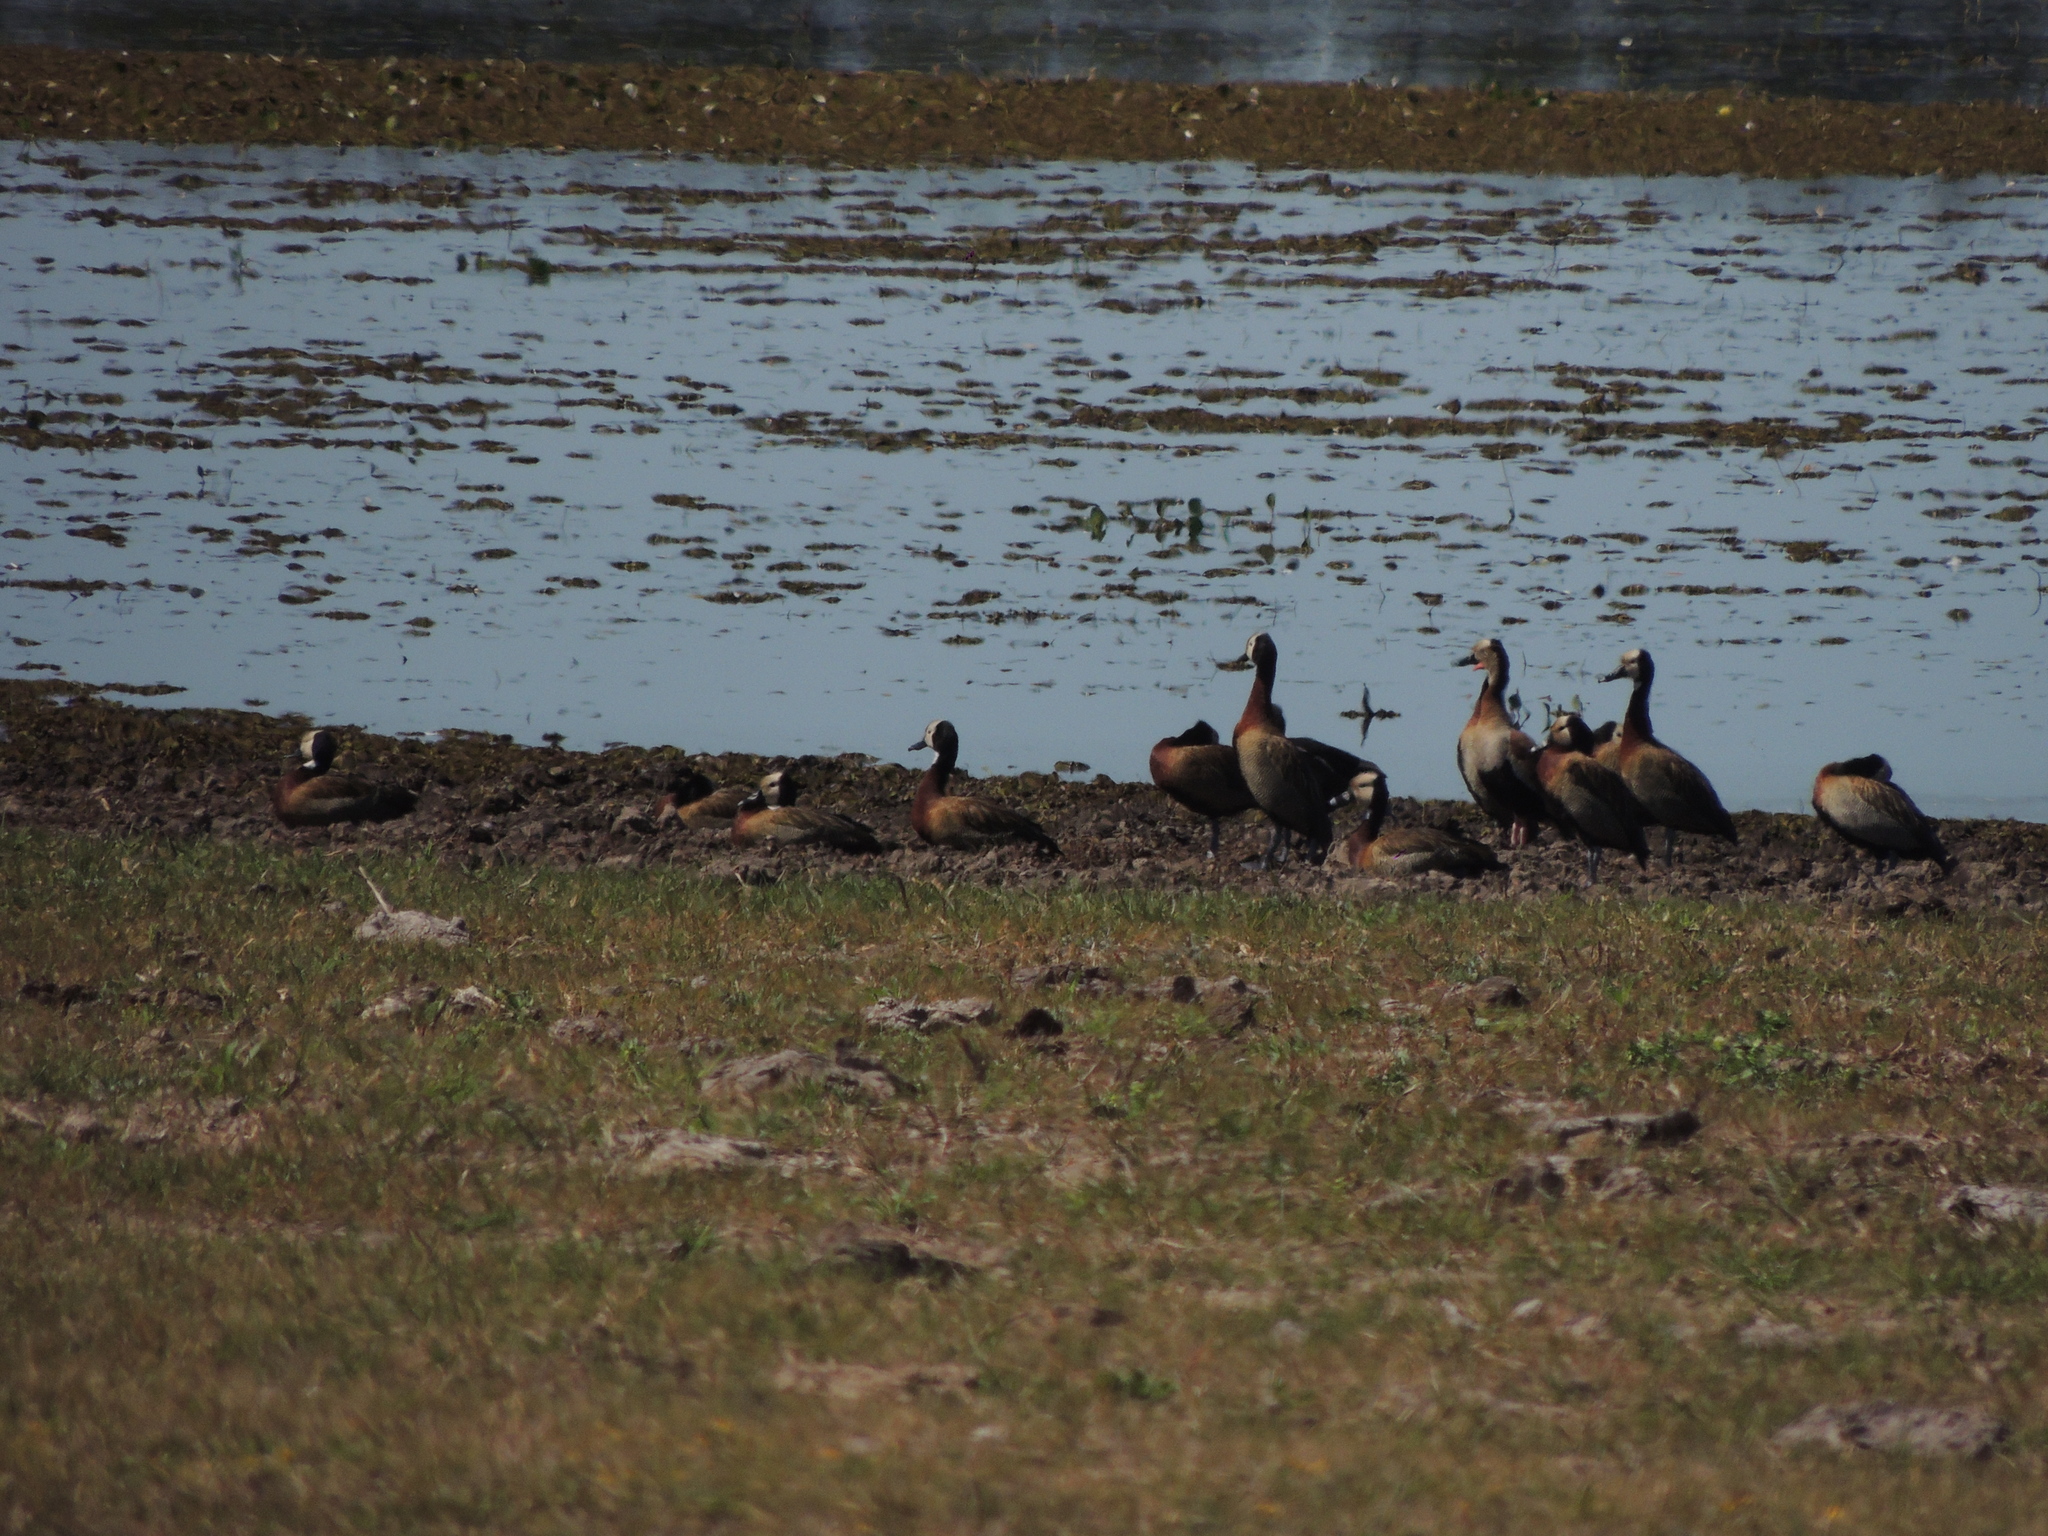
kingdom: Animalia
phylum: Chordata
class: Aves
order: Anseriformes
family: Anatidae
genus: Dendrocygna
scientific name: Dendrocygna viduata
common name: White-faced whistling duck
